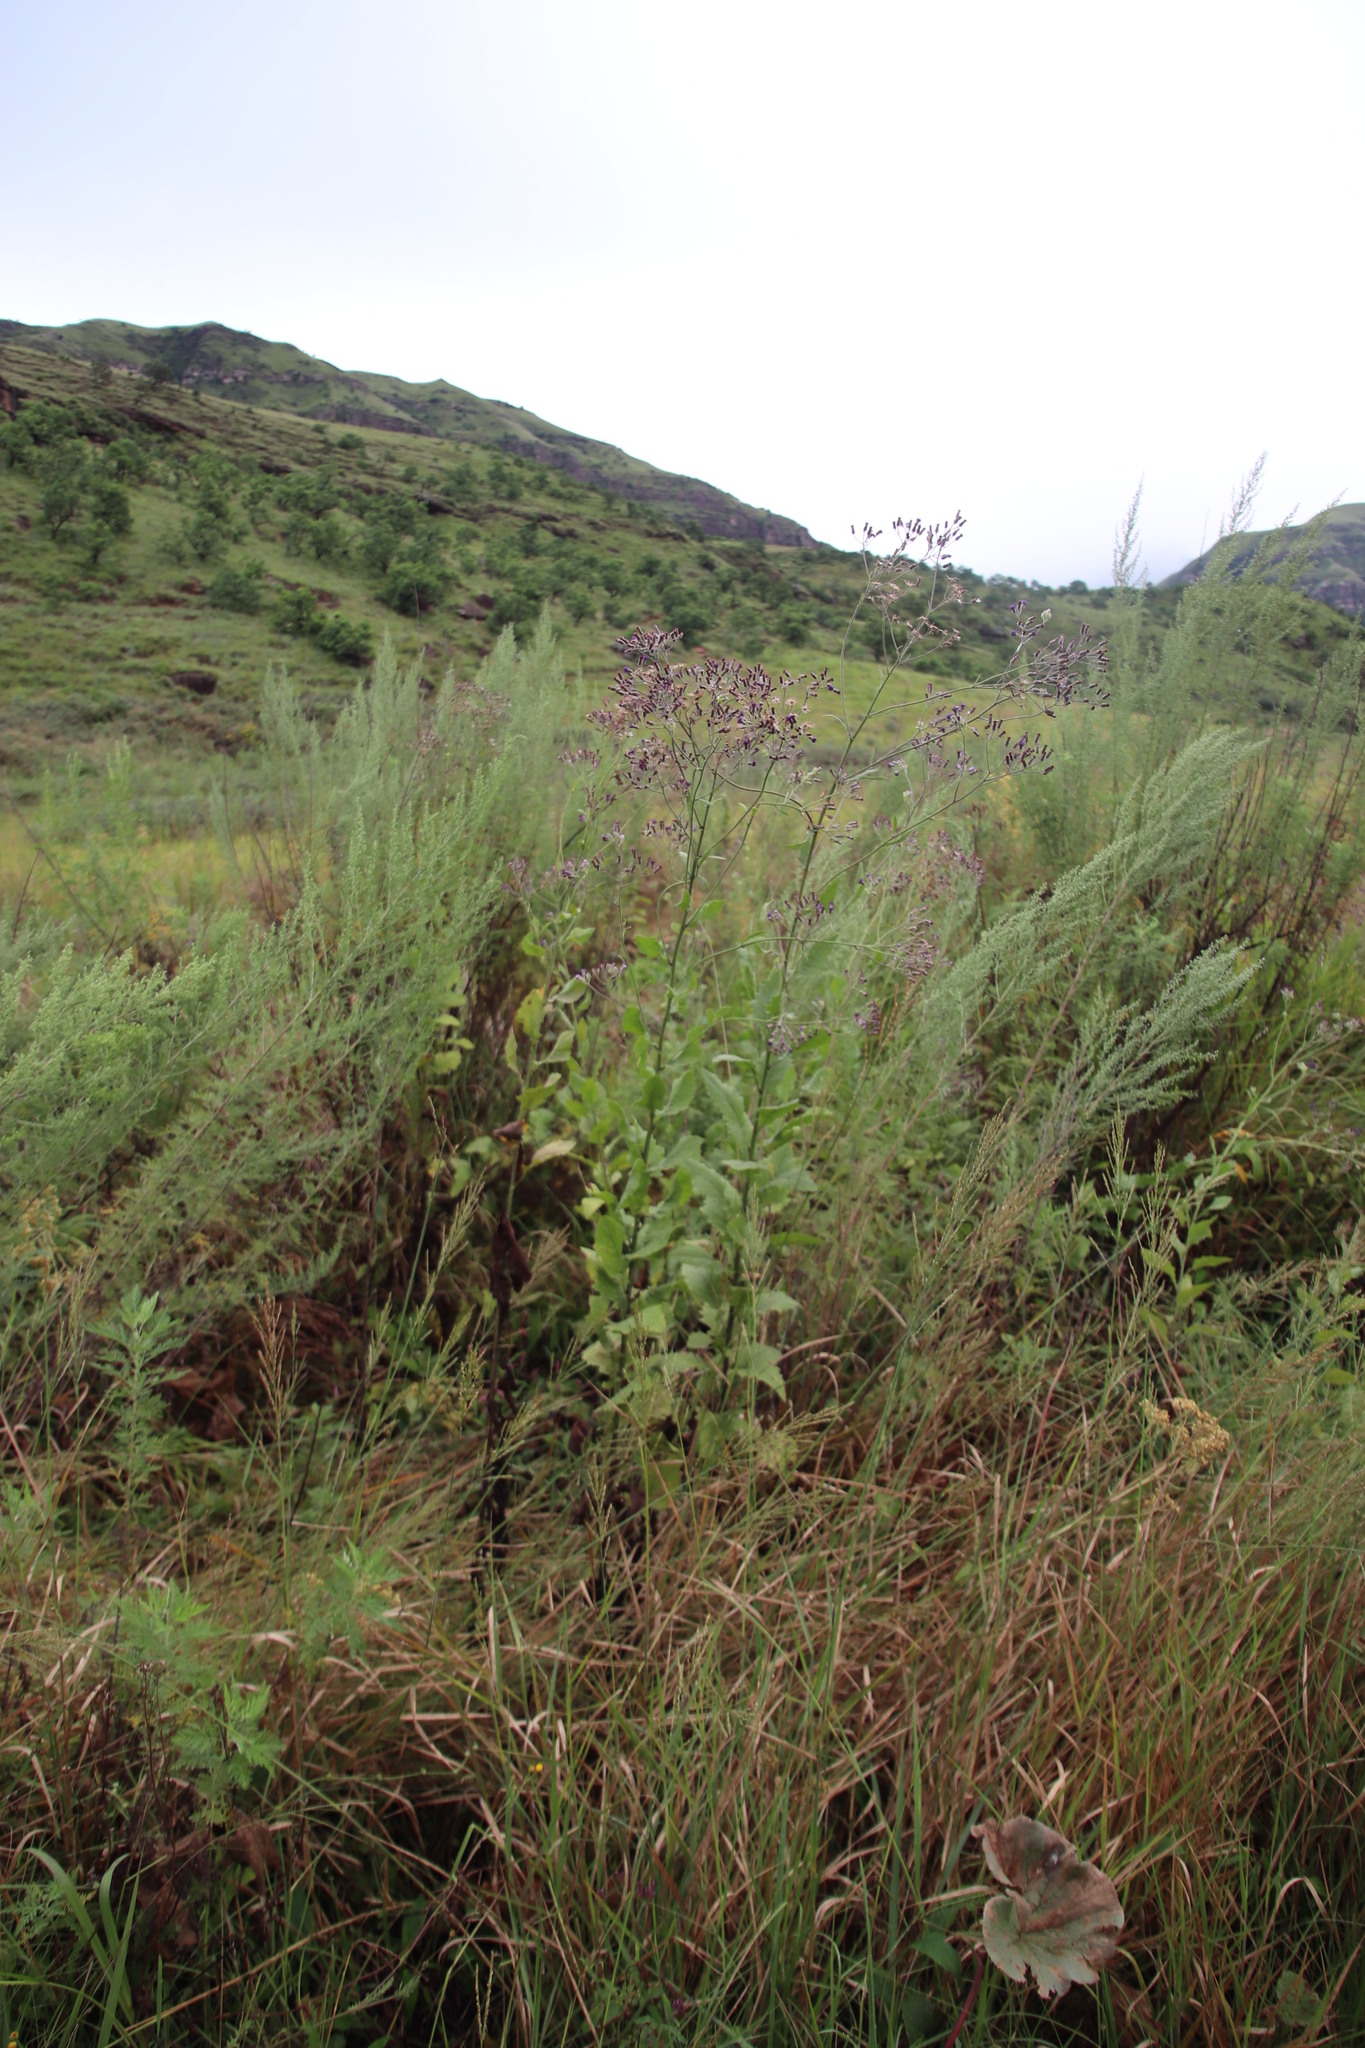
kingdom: Plantae
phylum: Tracheophyta
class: Magnoliopsida
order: Asterales
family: Asteraceae
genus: Senecio
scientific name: Senecio gerrardii
